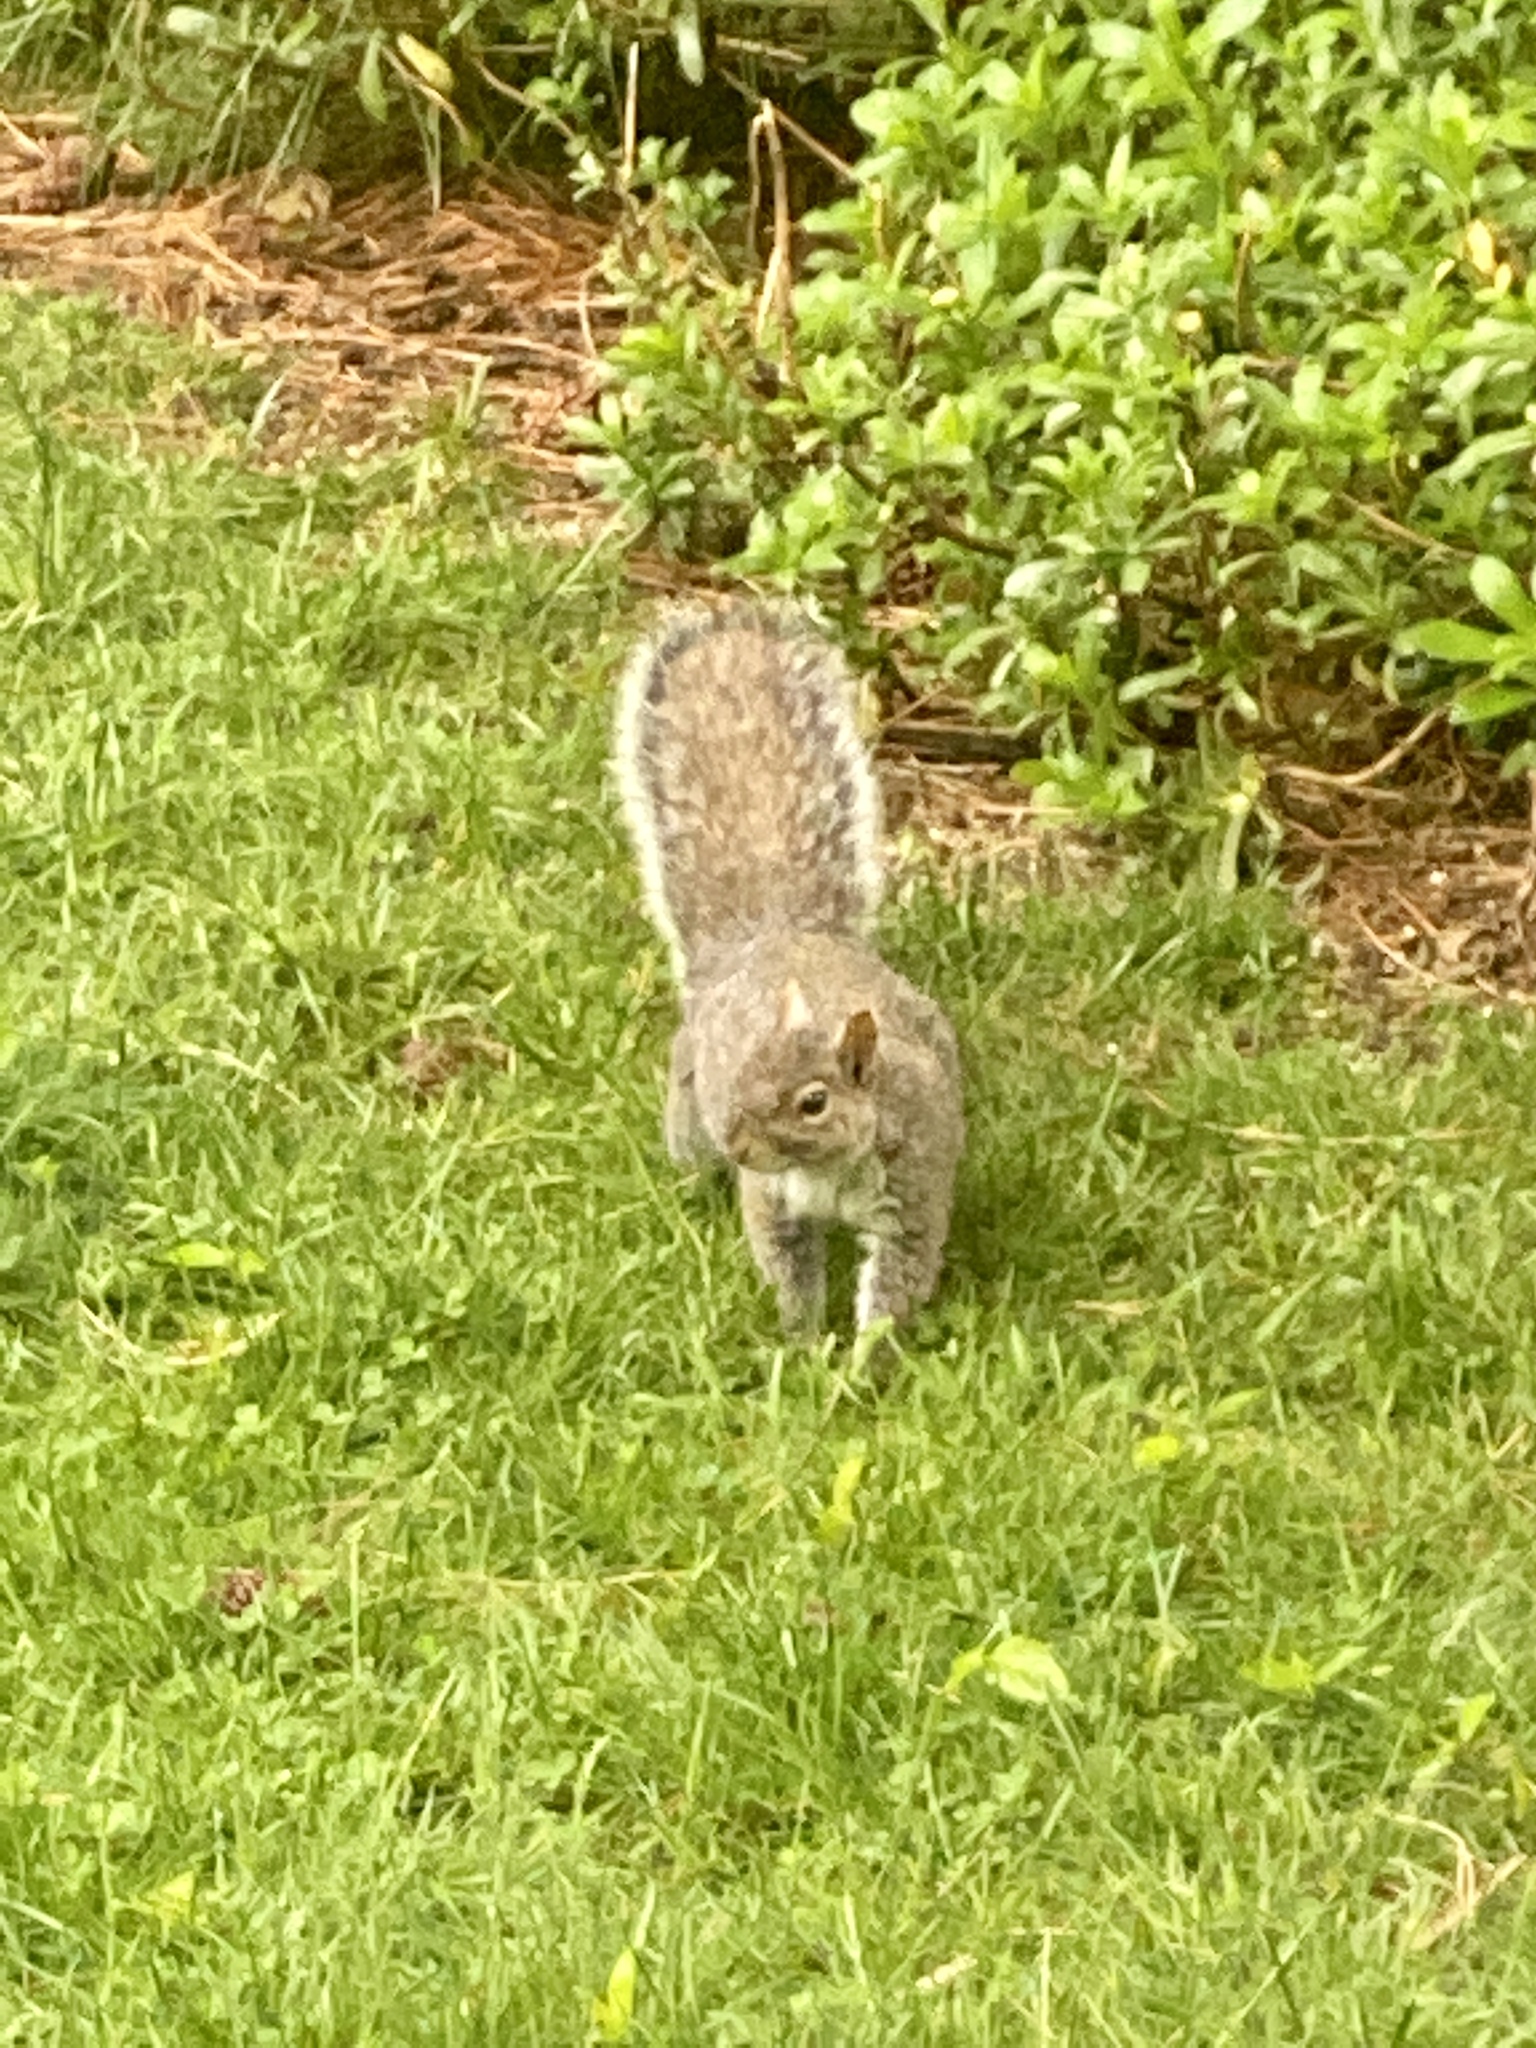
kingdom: Animalia
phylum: Chordata
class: Mammalia
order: Rodentia
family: Sciuridae
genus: Sciurus
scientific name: Sciurus carolinensis
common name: Eastern gray squirrel
